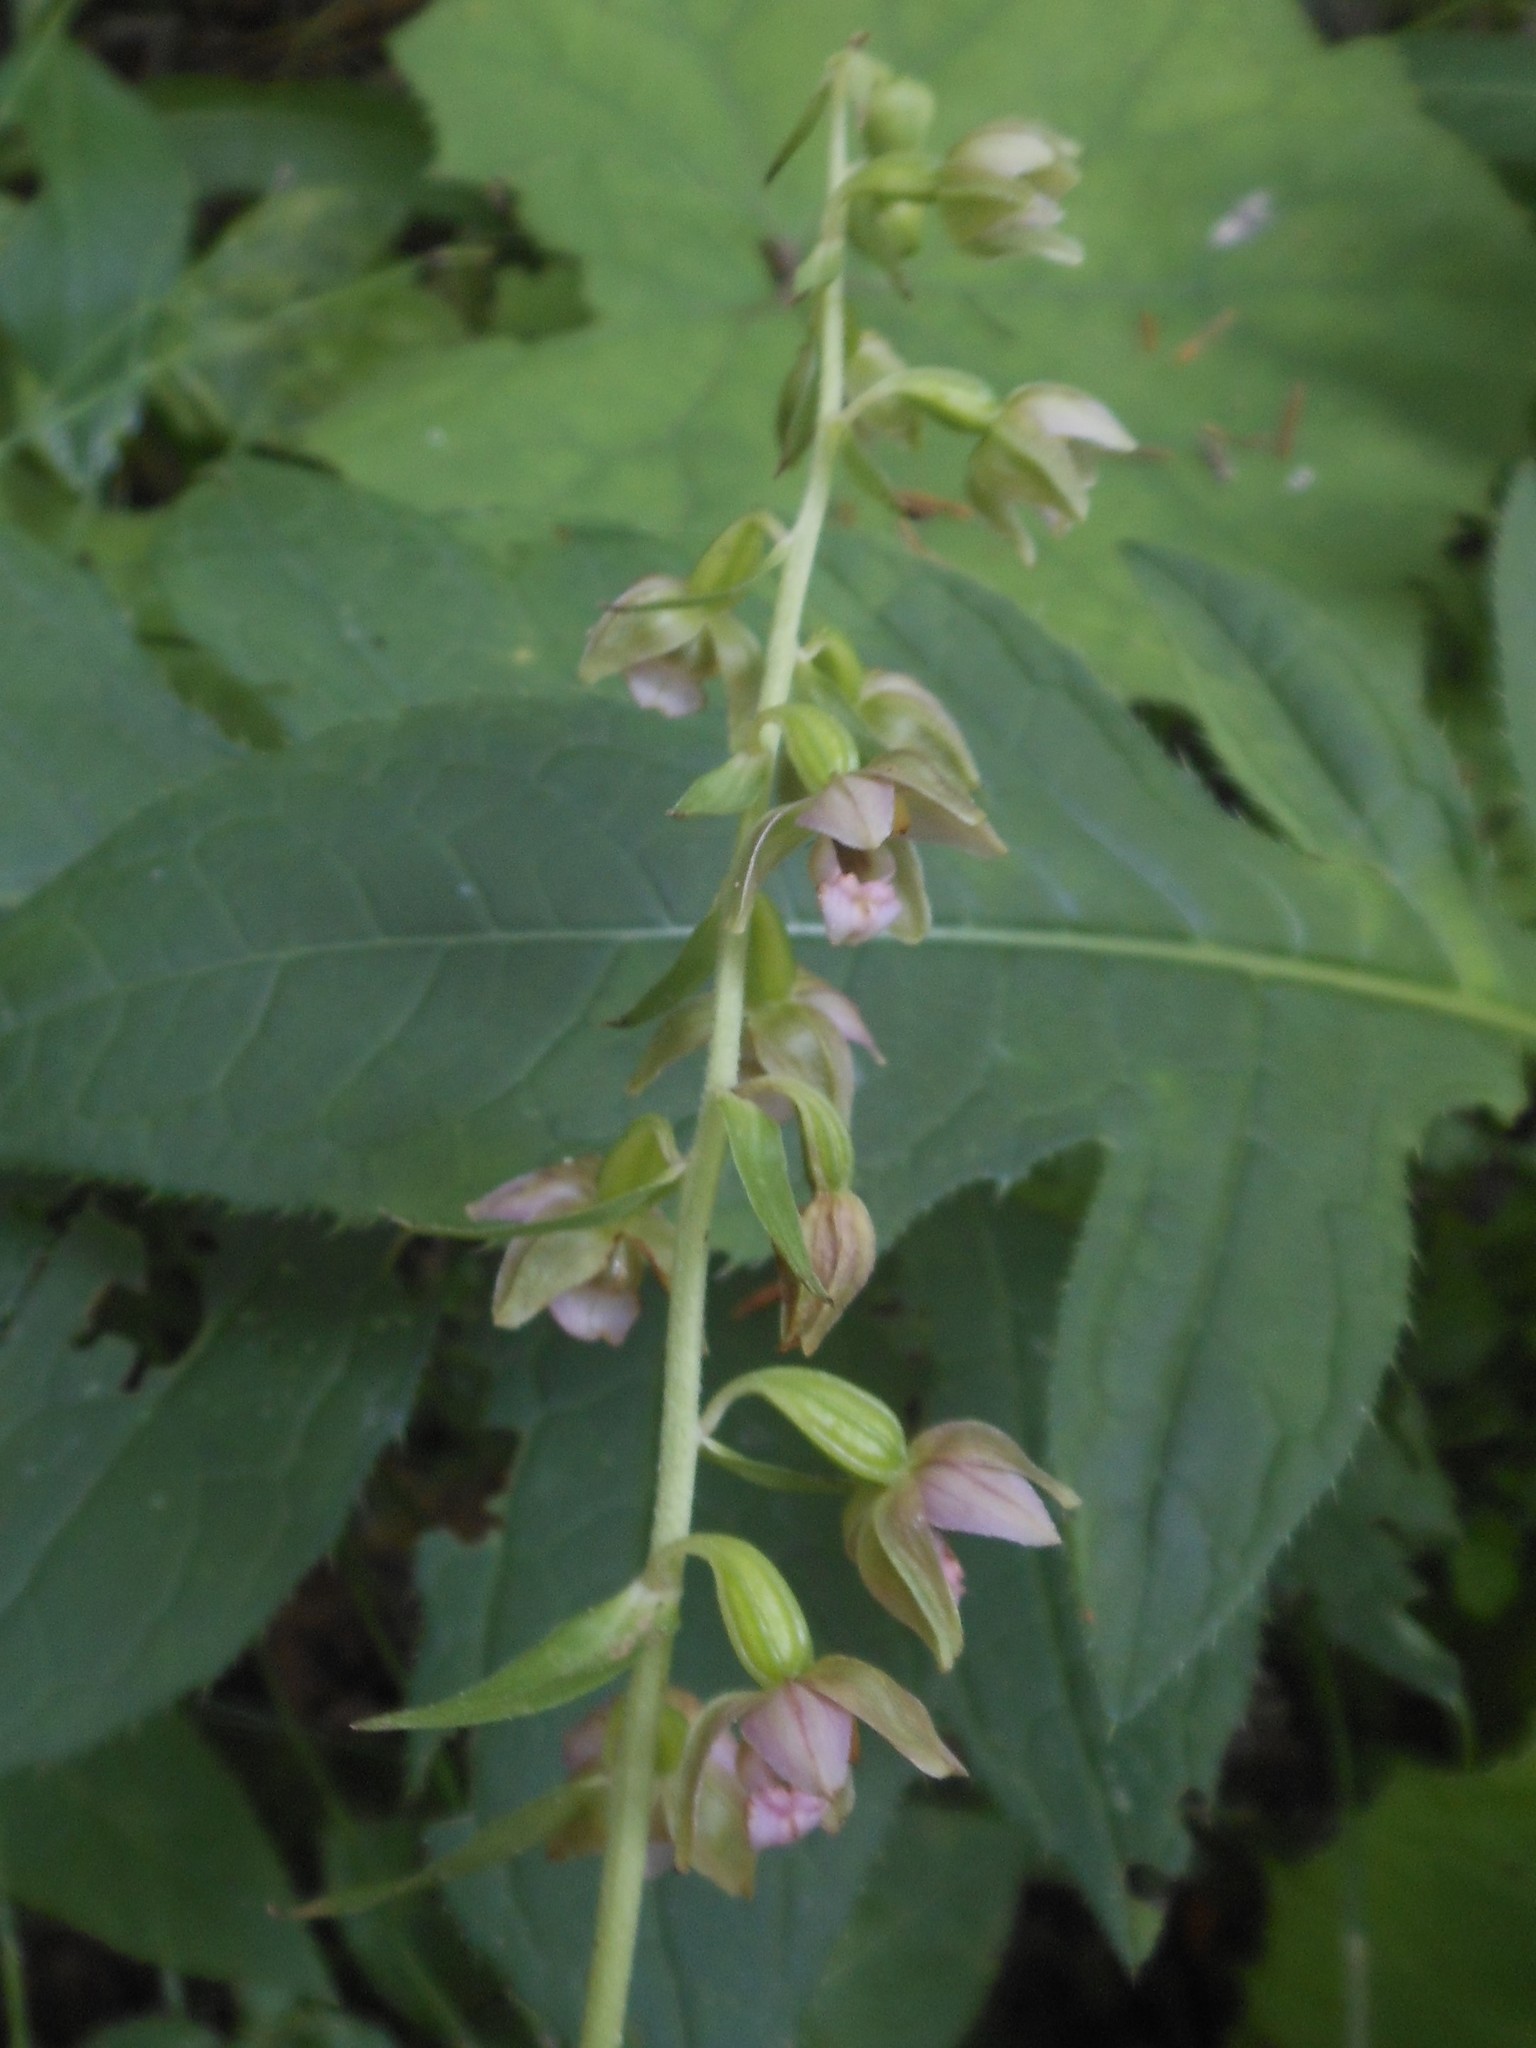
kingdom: Plantae
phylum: Tracheophyta
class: Liliopsida
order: Asparagales
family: Orchidaceae
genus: Epipactis
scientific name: Epipactis helleborine
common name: Broad-leaved helleborine
